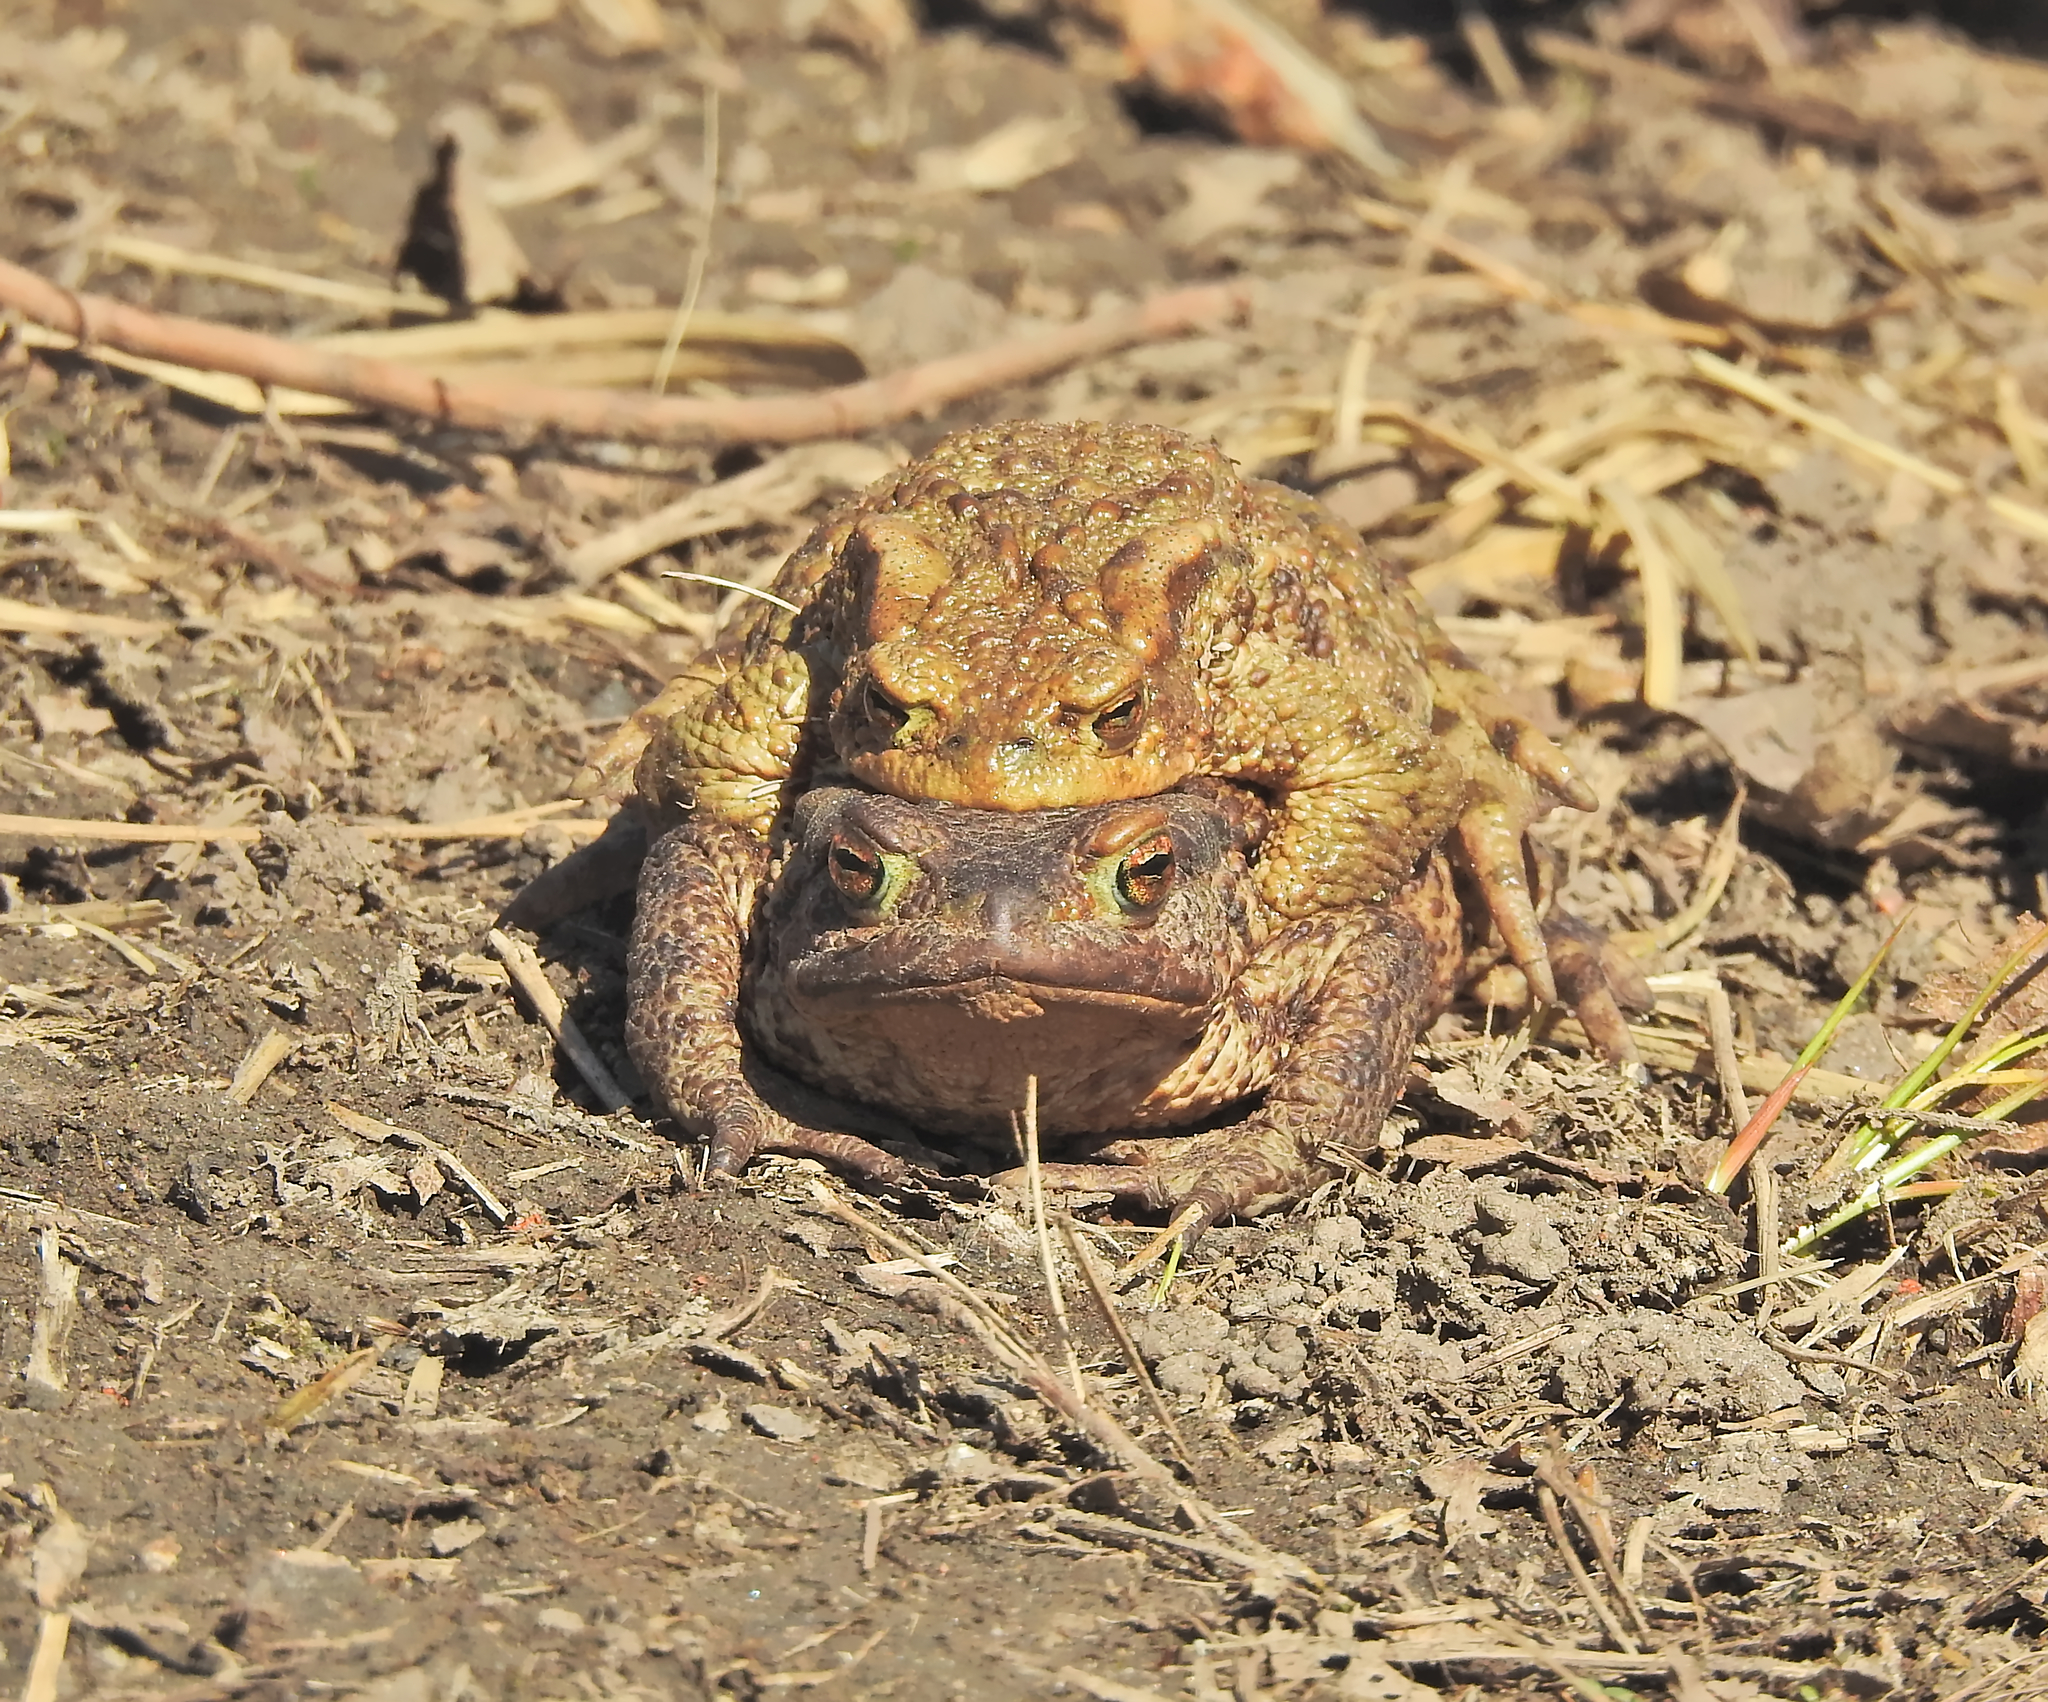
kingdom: Animalia
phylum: Chordata
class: Amphibia
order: Anura
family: Bufonidae
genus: Bufo
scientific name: Bufo bufo
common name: Common toad
